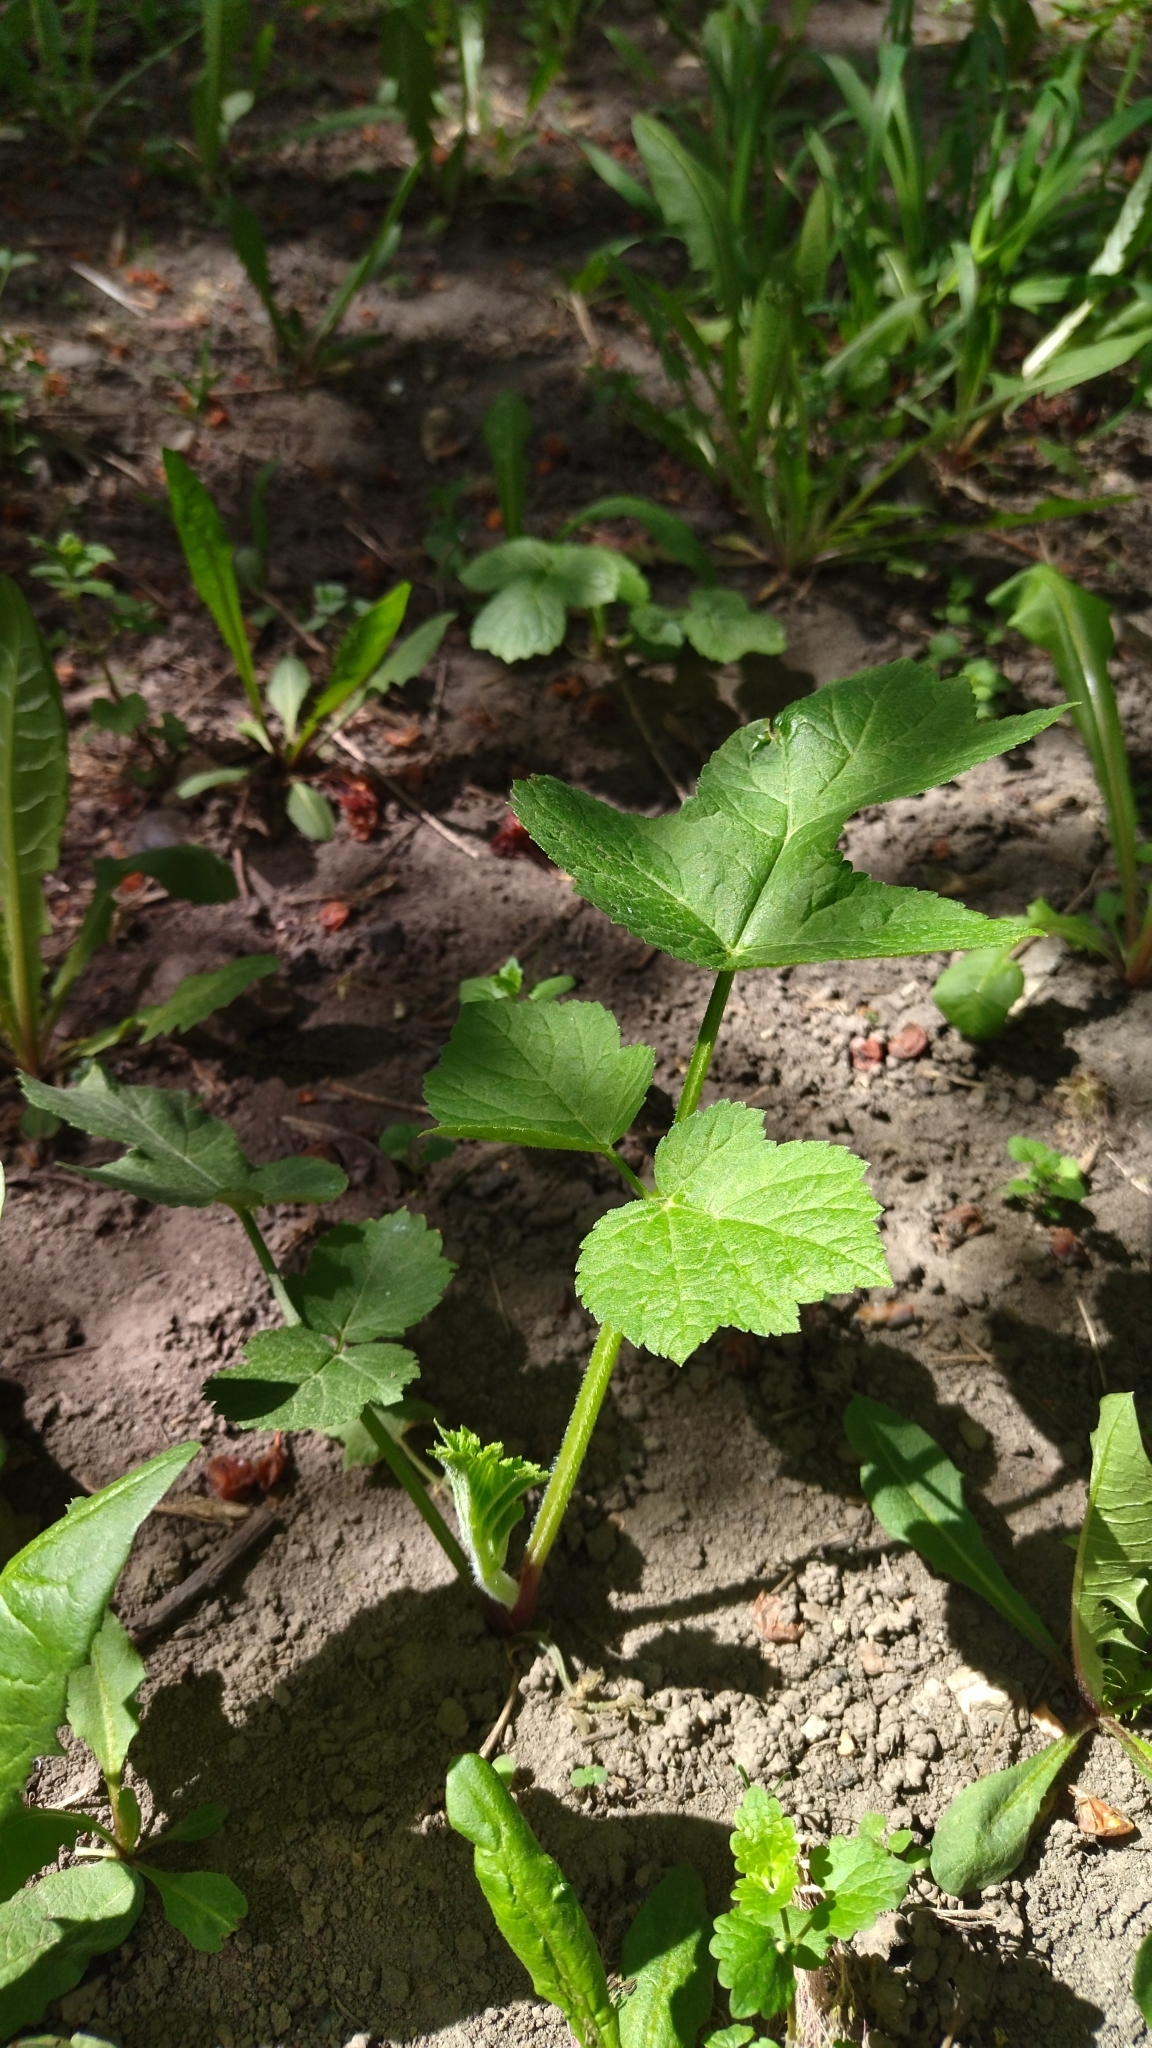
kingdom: Plantae
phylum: Tracheophyta
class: Magnoliopsida
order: Apiales
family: Apiaceae
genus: Heracleum
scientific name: Heracleum dissectum
